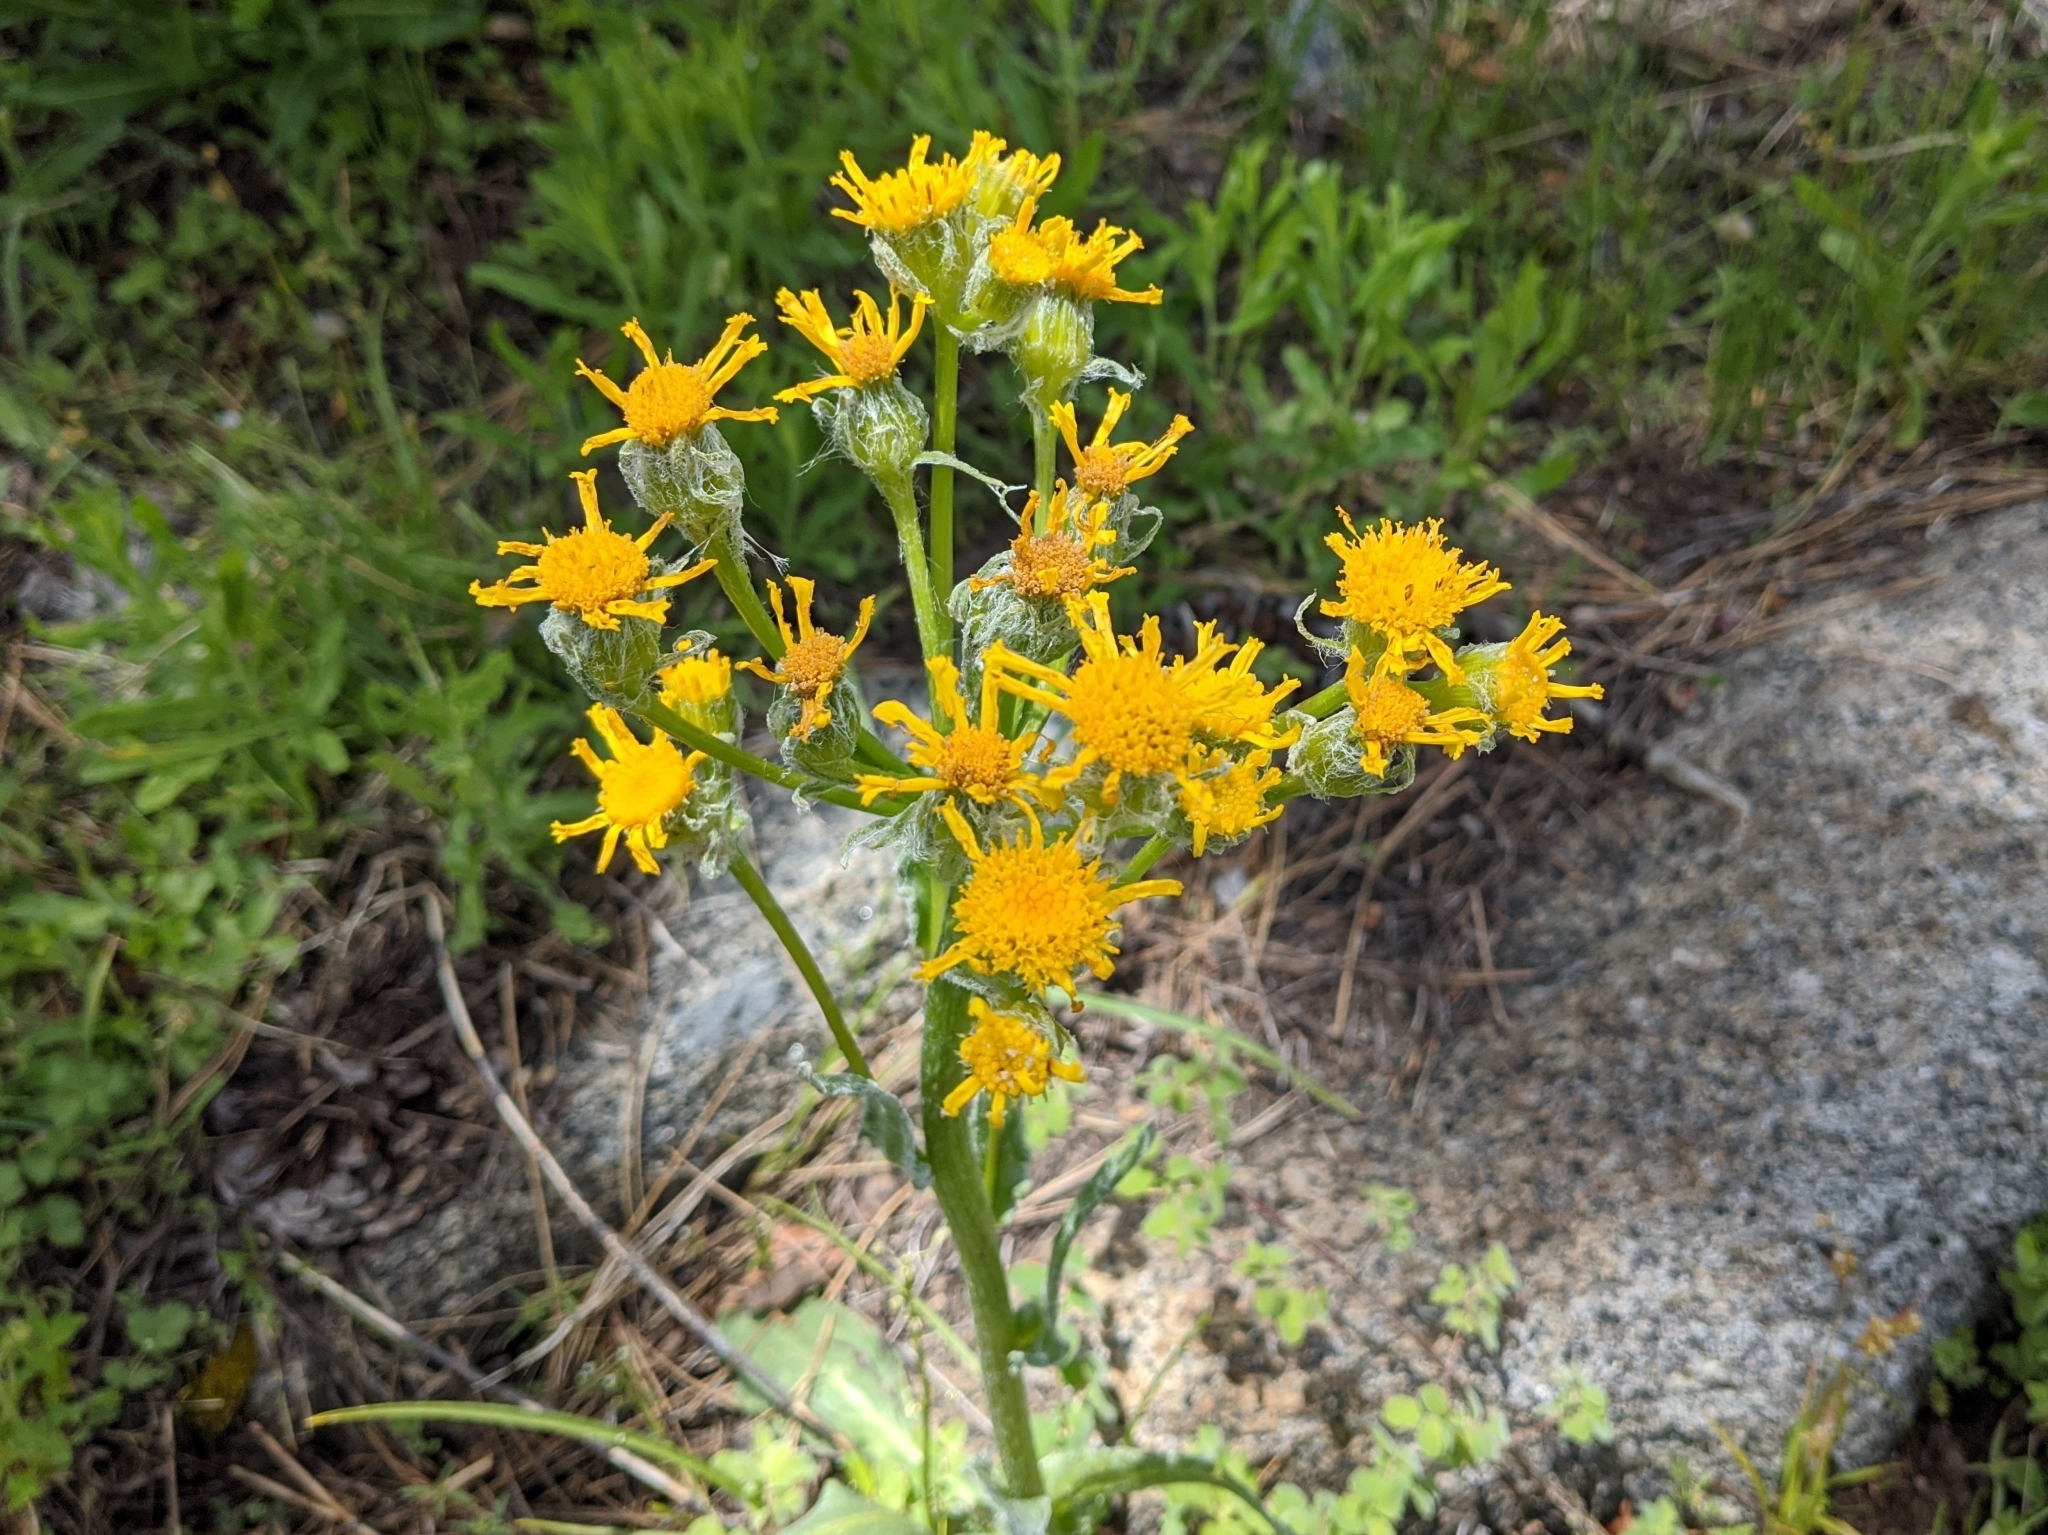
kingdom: Plantae
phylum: Tracheophyta
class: Magnoliopsida
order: Asterales
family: Asteraceae
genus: Senecio
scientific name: Senecio integerrimus
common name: Gaugeplant
